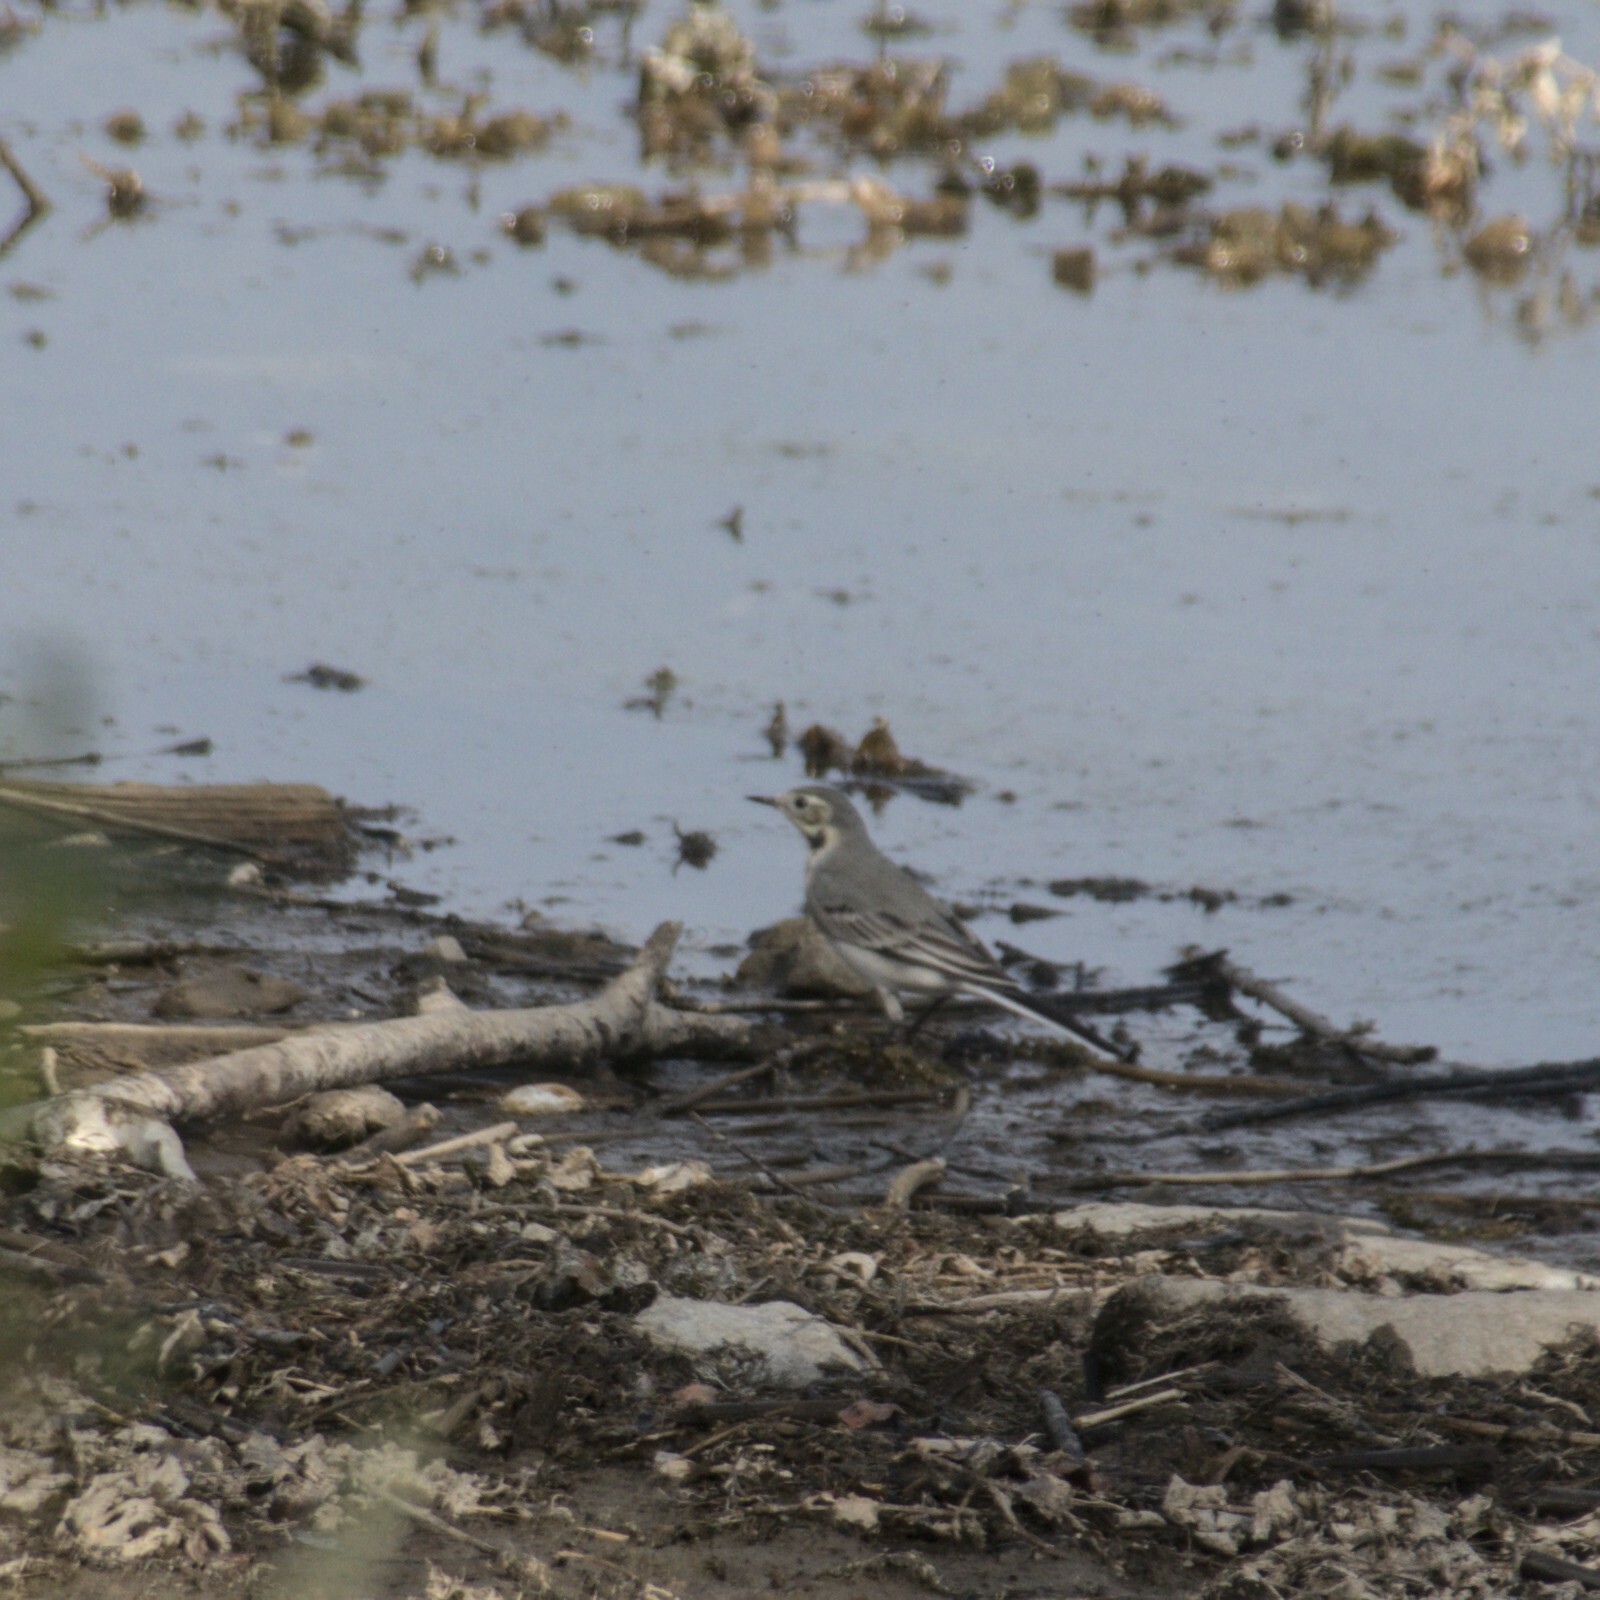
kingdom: Animalia
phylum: Chordata
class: Aves
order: Passeriformes
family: Motacillidae
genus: Motacilla
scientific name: Motacilla alba
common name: White wagtail
